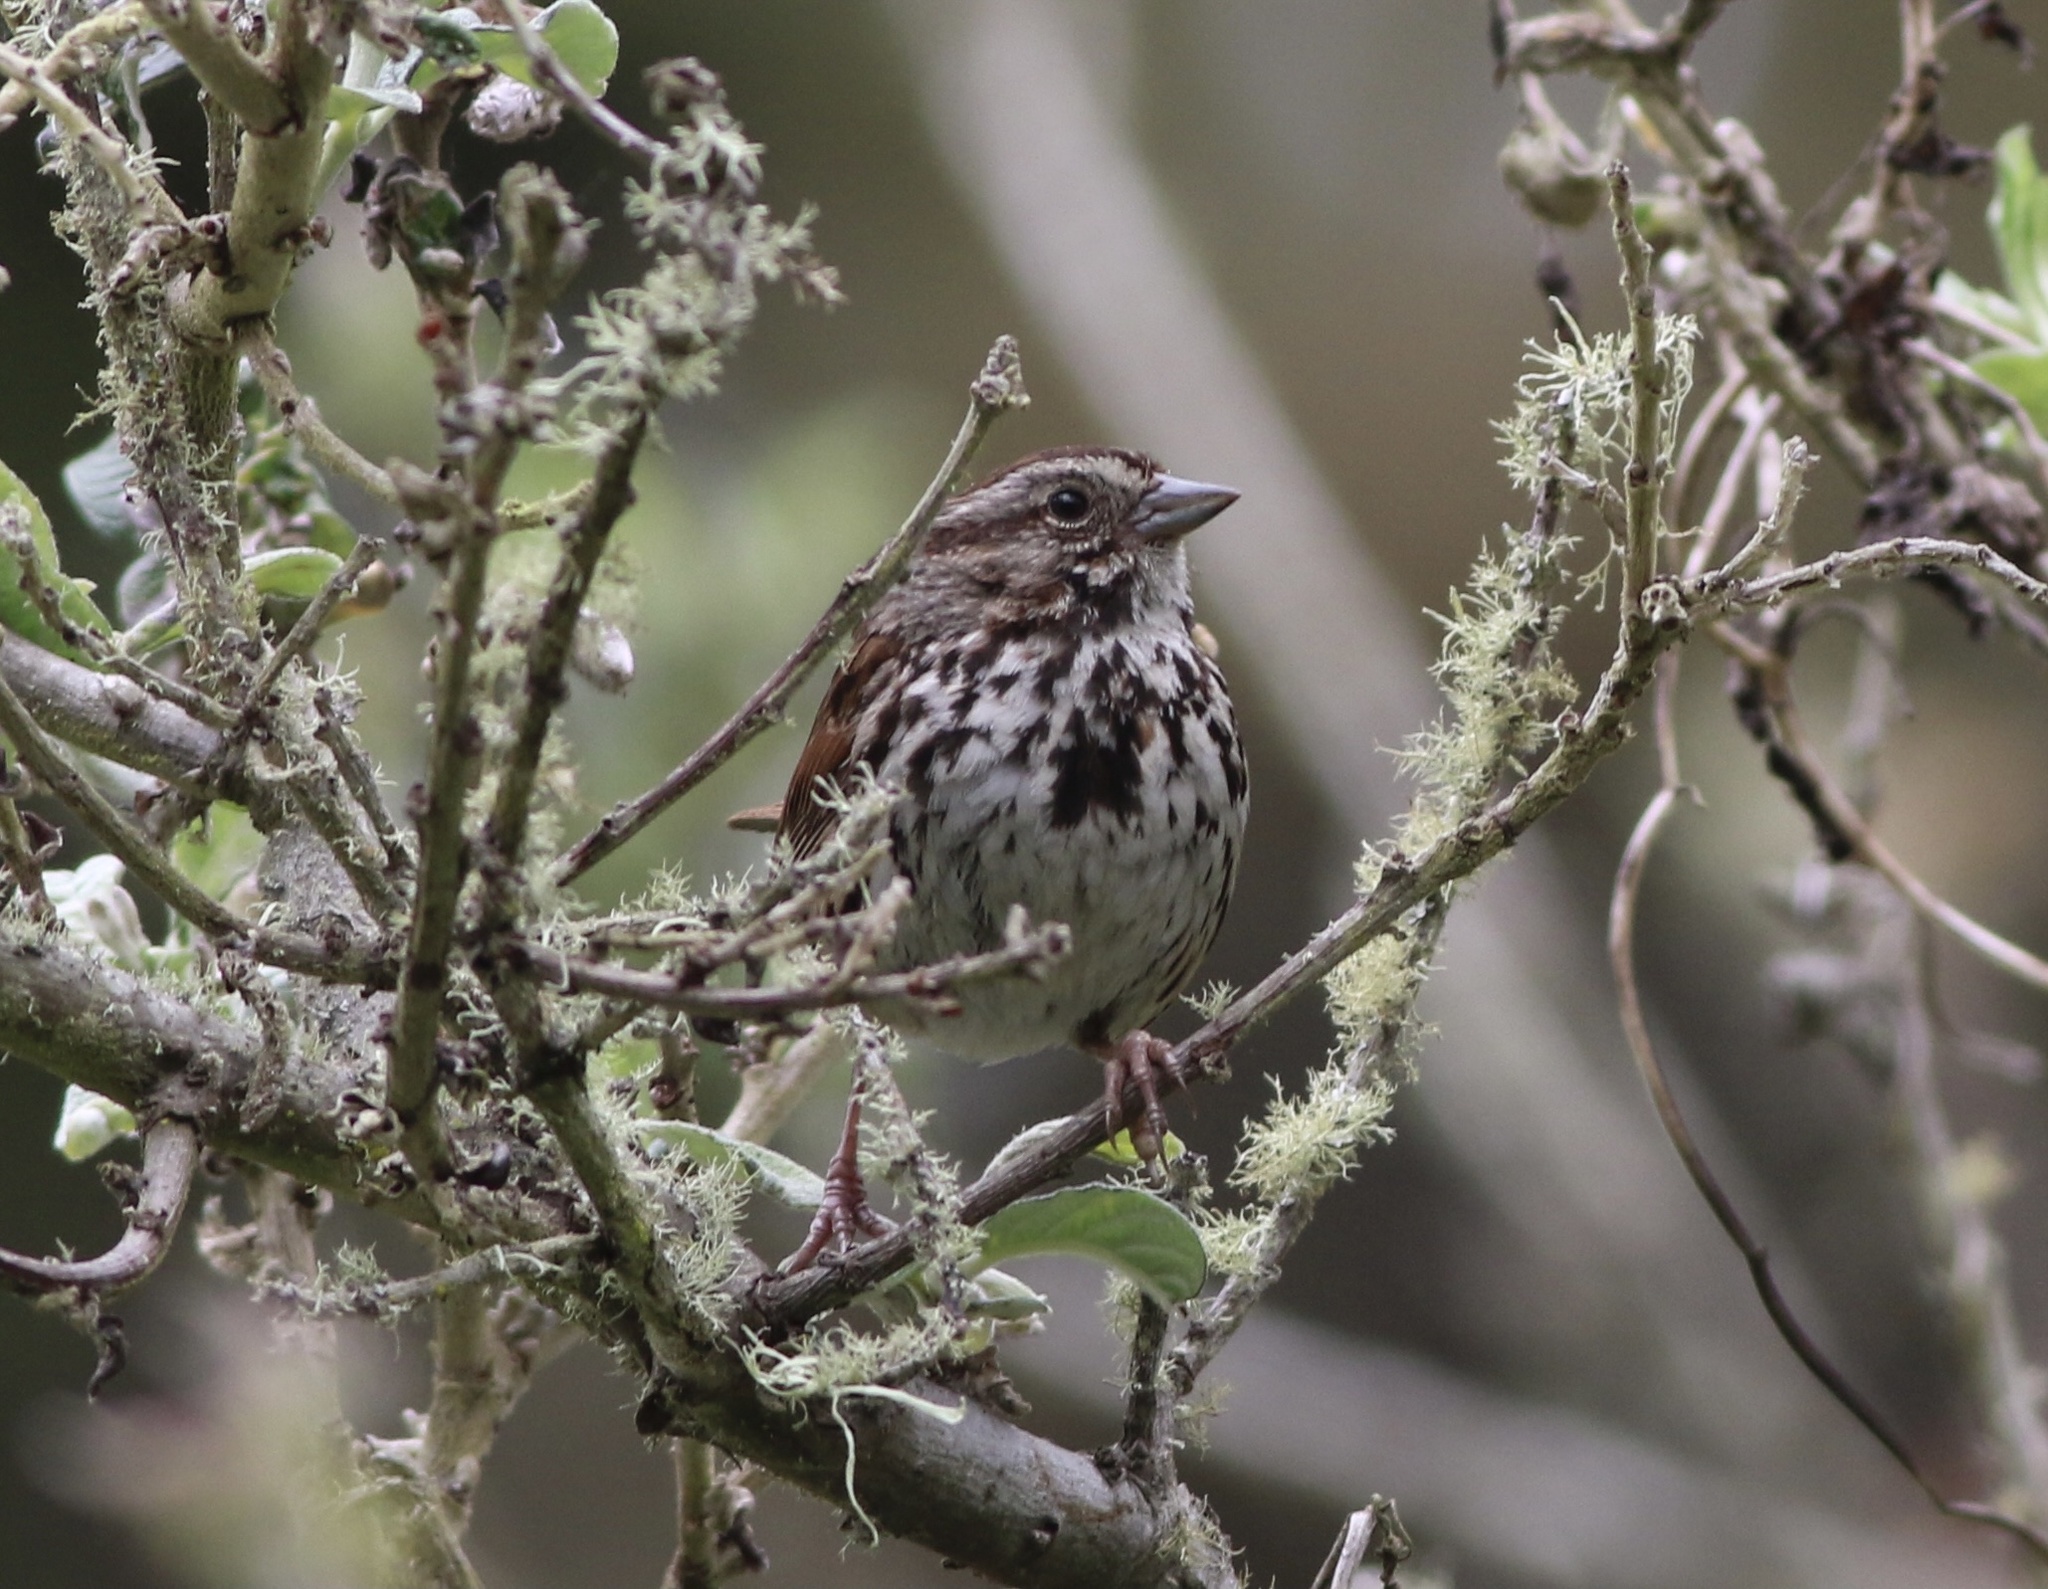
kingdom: Animalia
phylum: Chordata
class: Aves
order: Passeriformes
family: Passerellidae
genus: Melospiza
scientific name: Melospiza melodia
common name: Song sparrow
